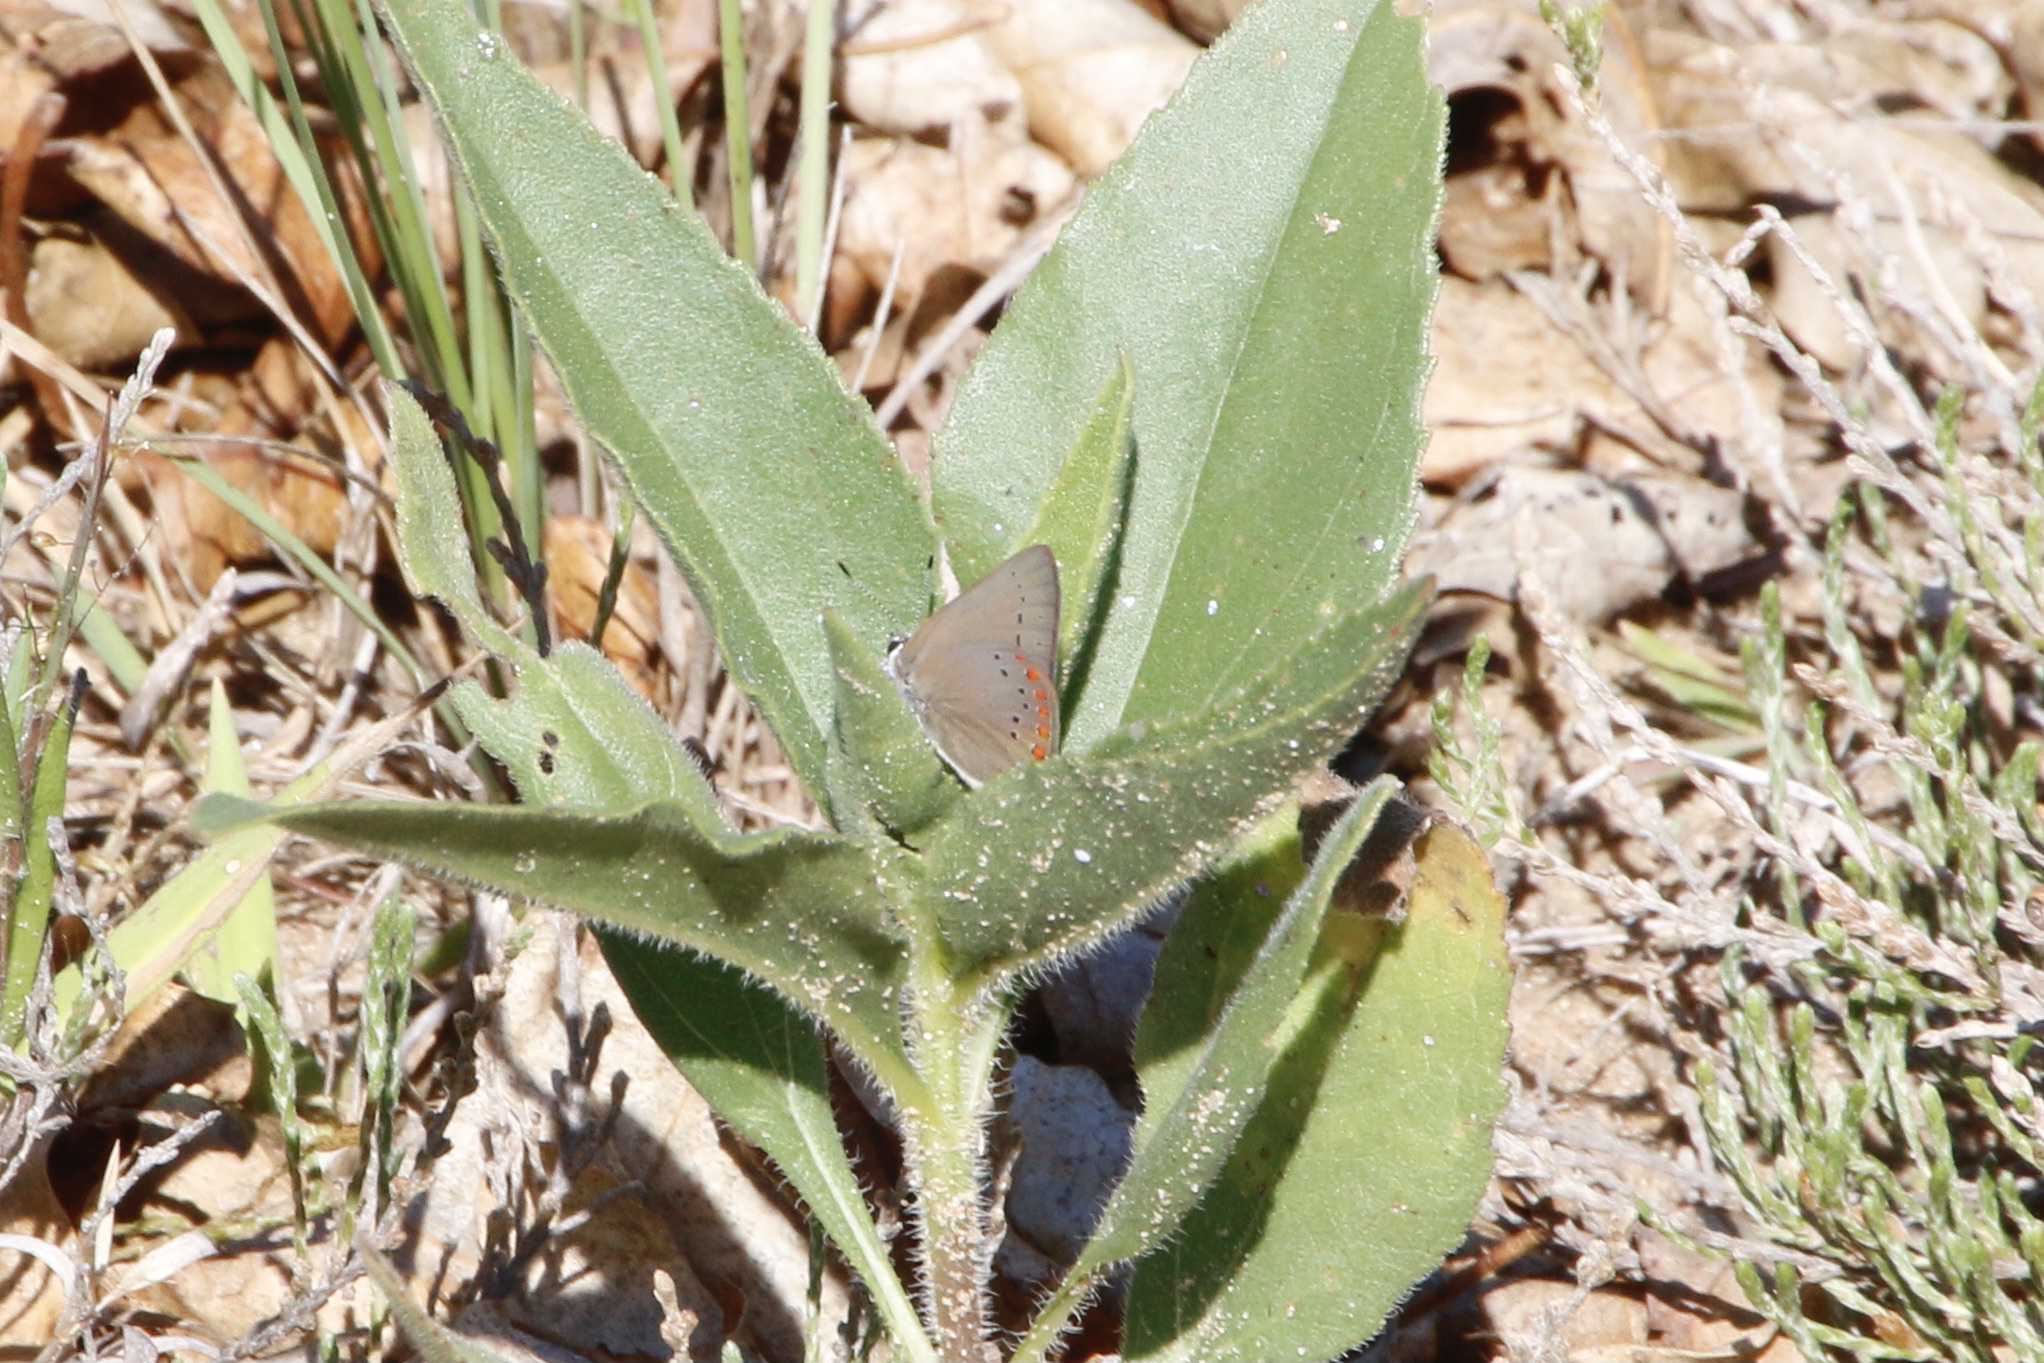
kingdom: Animalia
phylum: Arthropoda
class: Insecta
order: Lepidoptera
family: Lycaenidae
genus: Harkenclenus
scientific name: Harkenclenus titus
